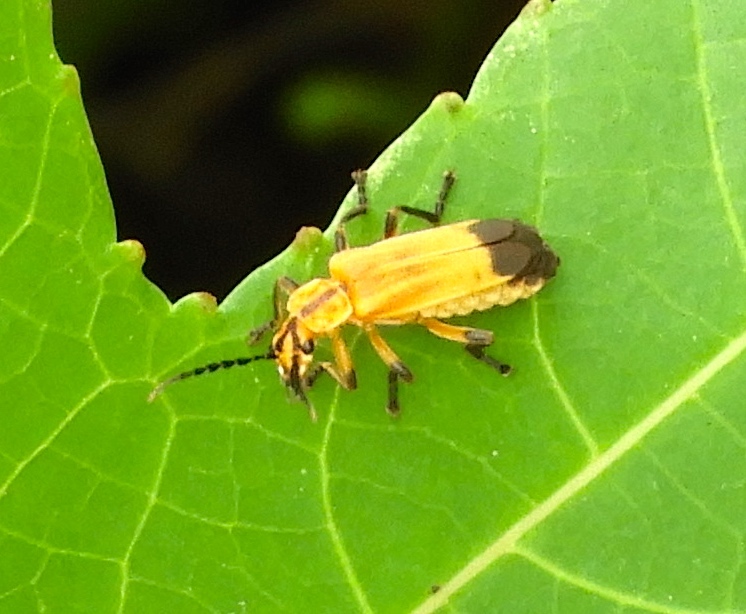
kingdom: Animalia
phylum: Arthropoda
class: Insecta
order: Coleoptera
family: Cantharidae
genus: Daiphron
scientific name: Daiphron proteum
